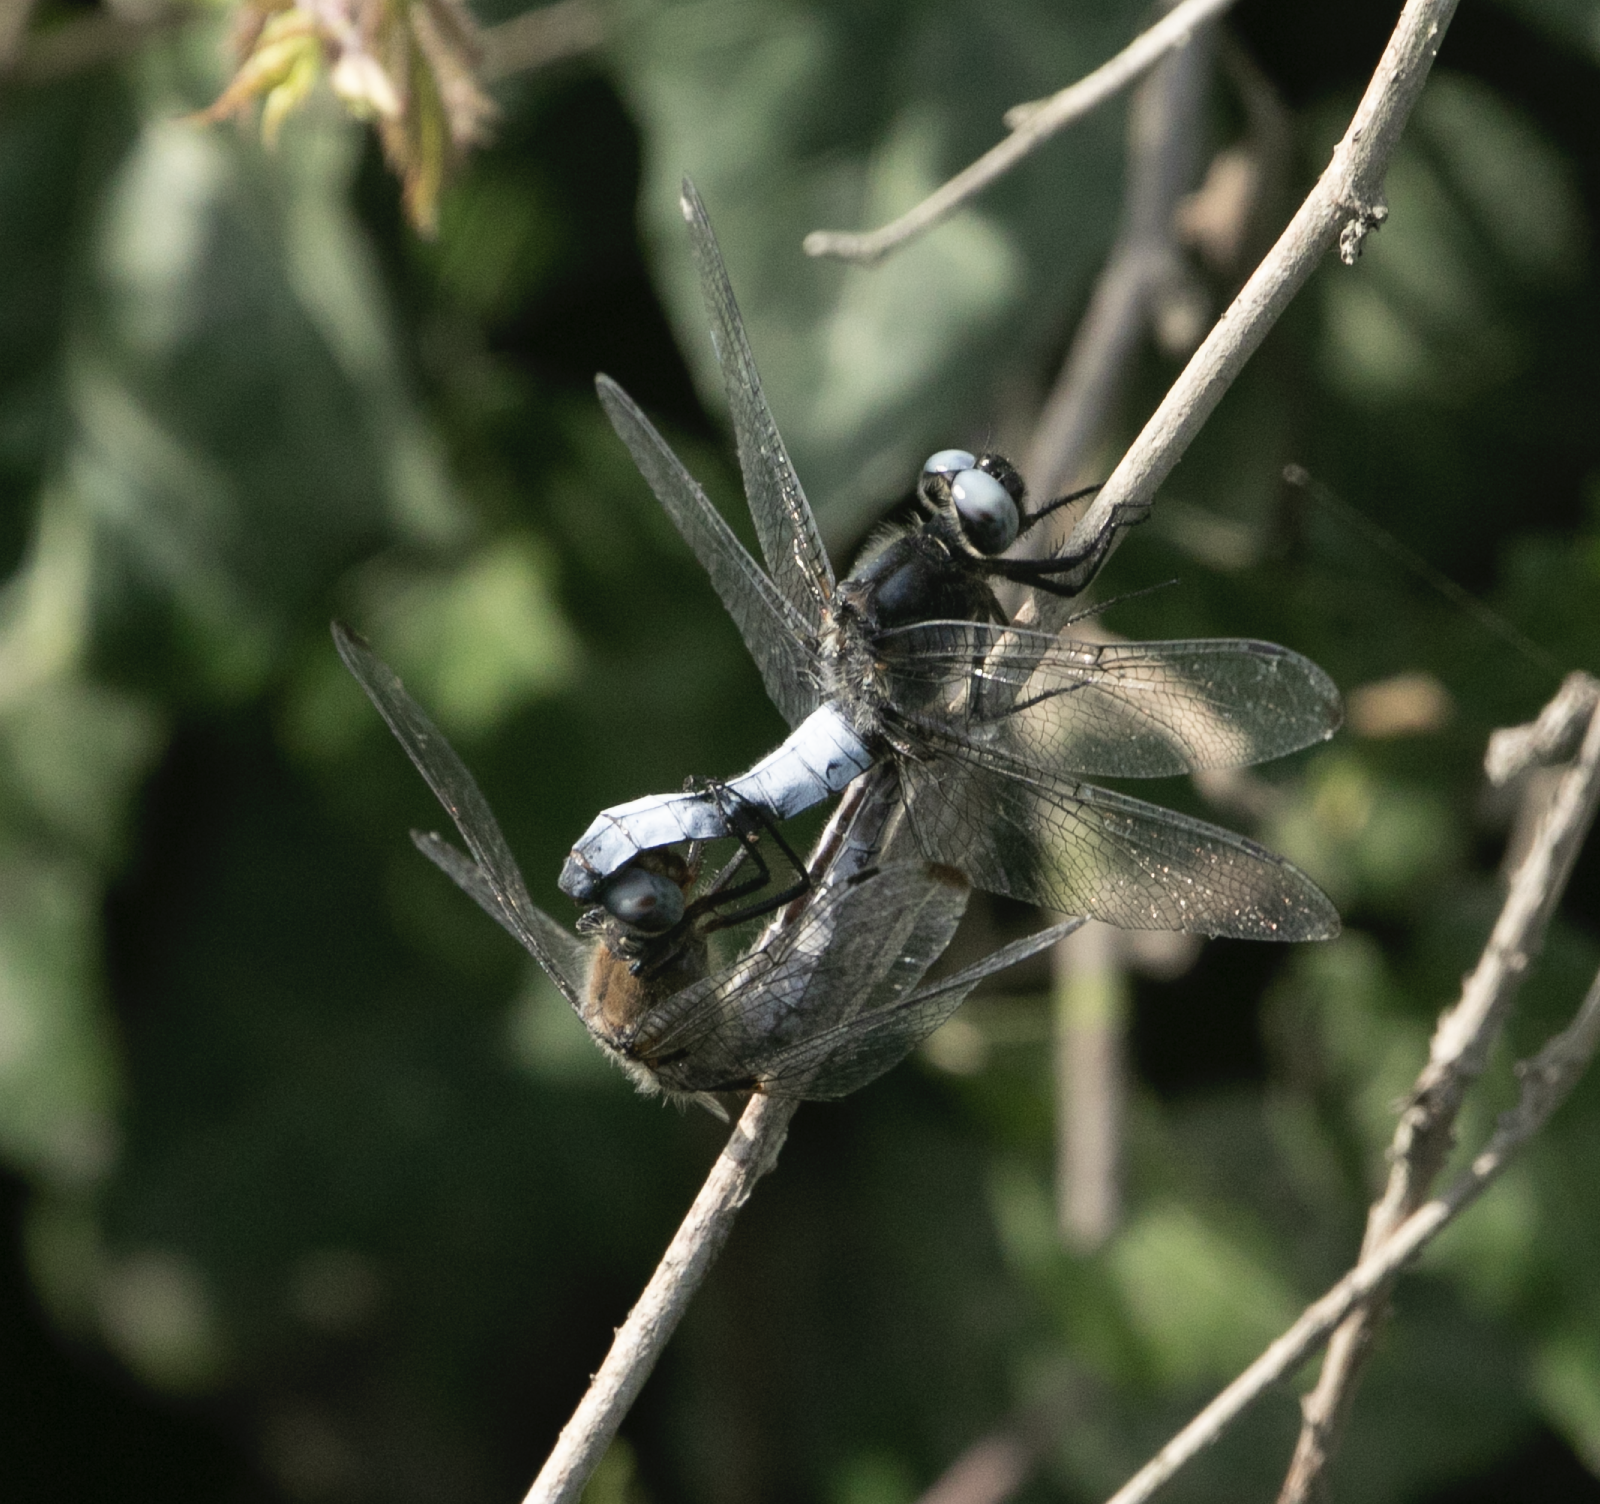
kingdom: Animalia
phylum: Arthropoda
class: Insecta
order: Odonata
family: Libellulidae
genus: Libellula
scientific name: Libellula fulva
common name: Blue chaser
